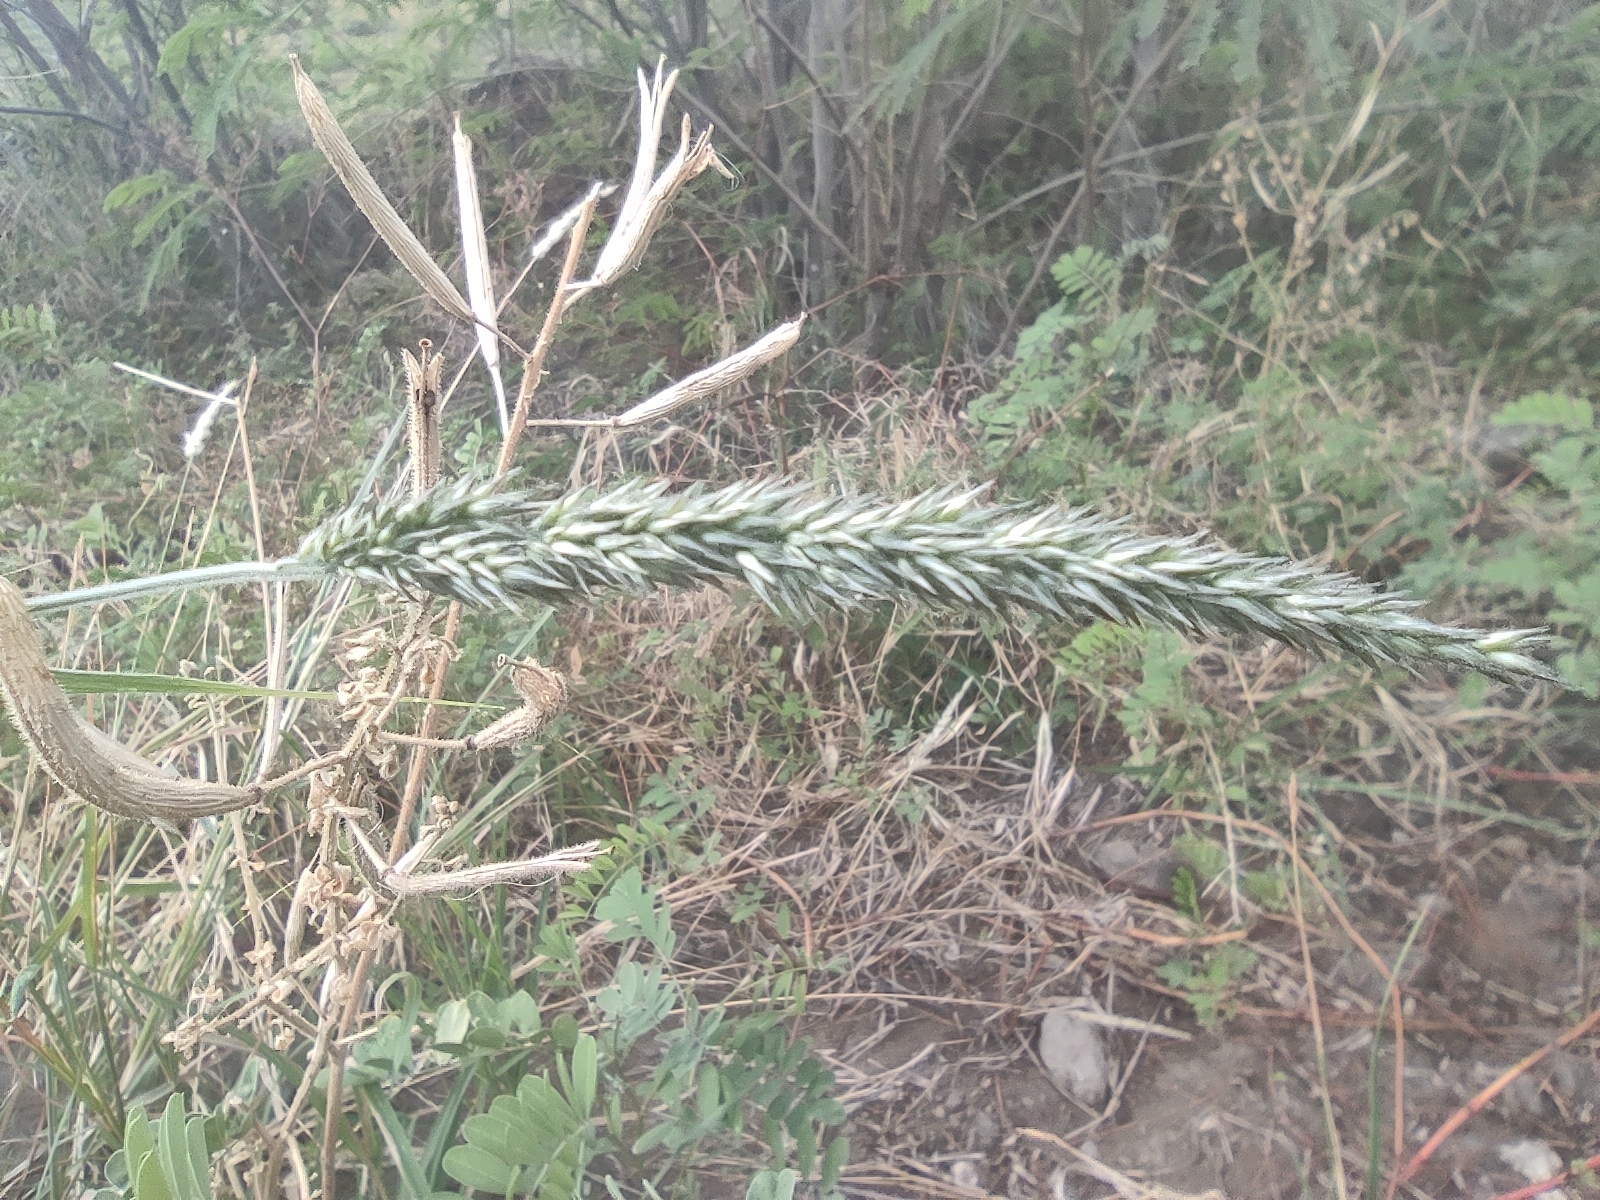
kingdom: Plantae
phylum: Tracheophyta
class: Liliopsida
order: Poales
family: Poaceae
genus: Enneapogon
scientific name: Enneapogon cenchroides
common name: Soft feather pappusgrass
